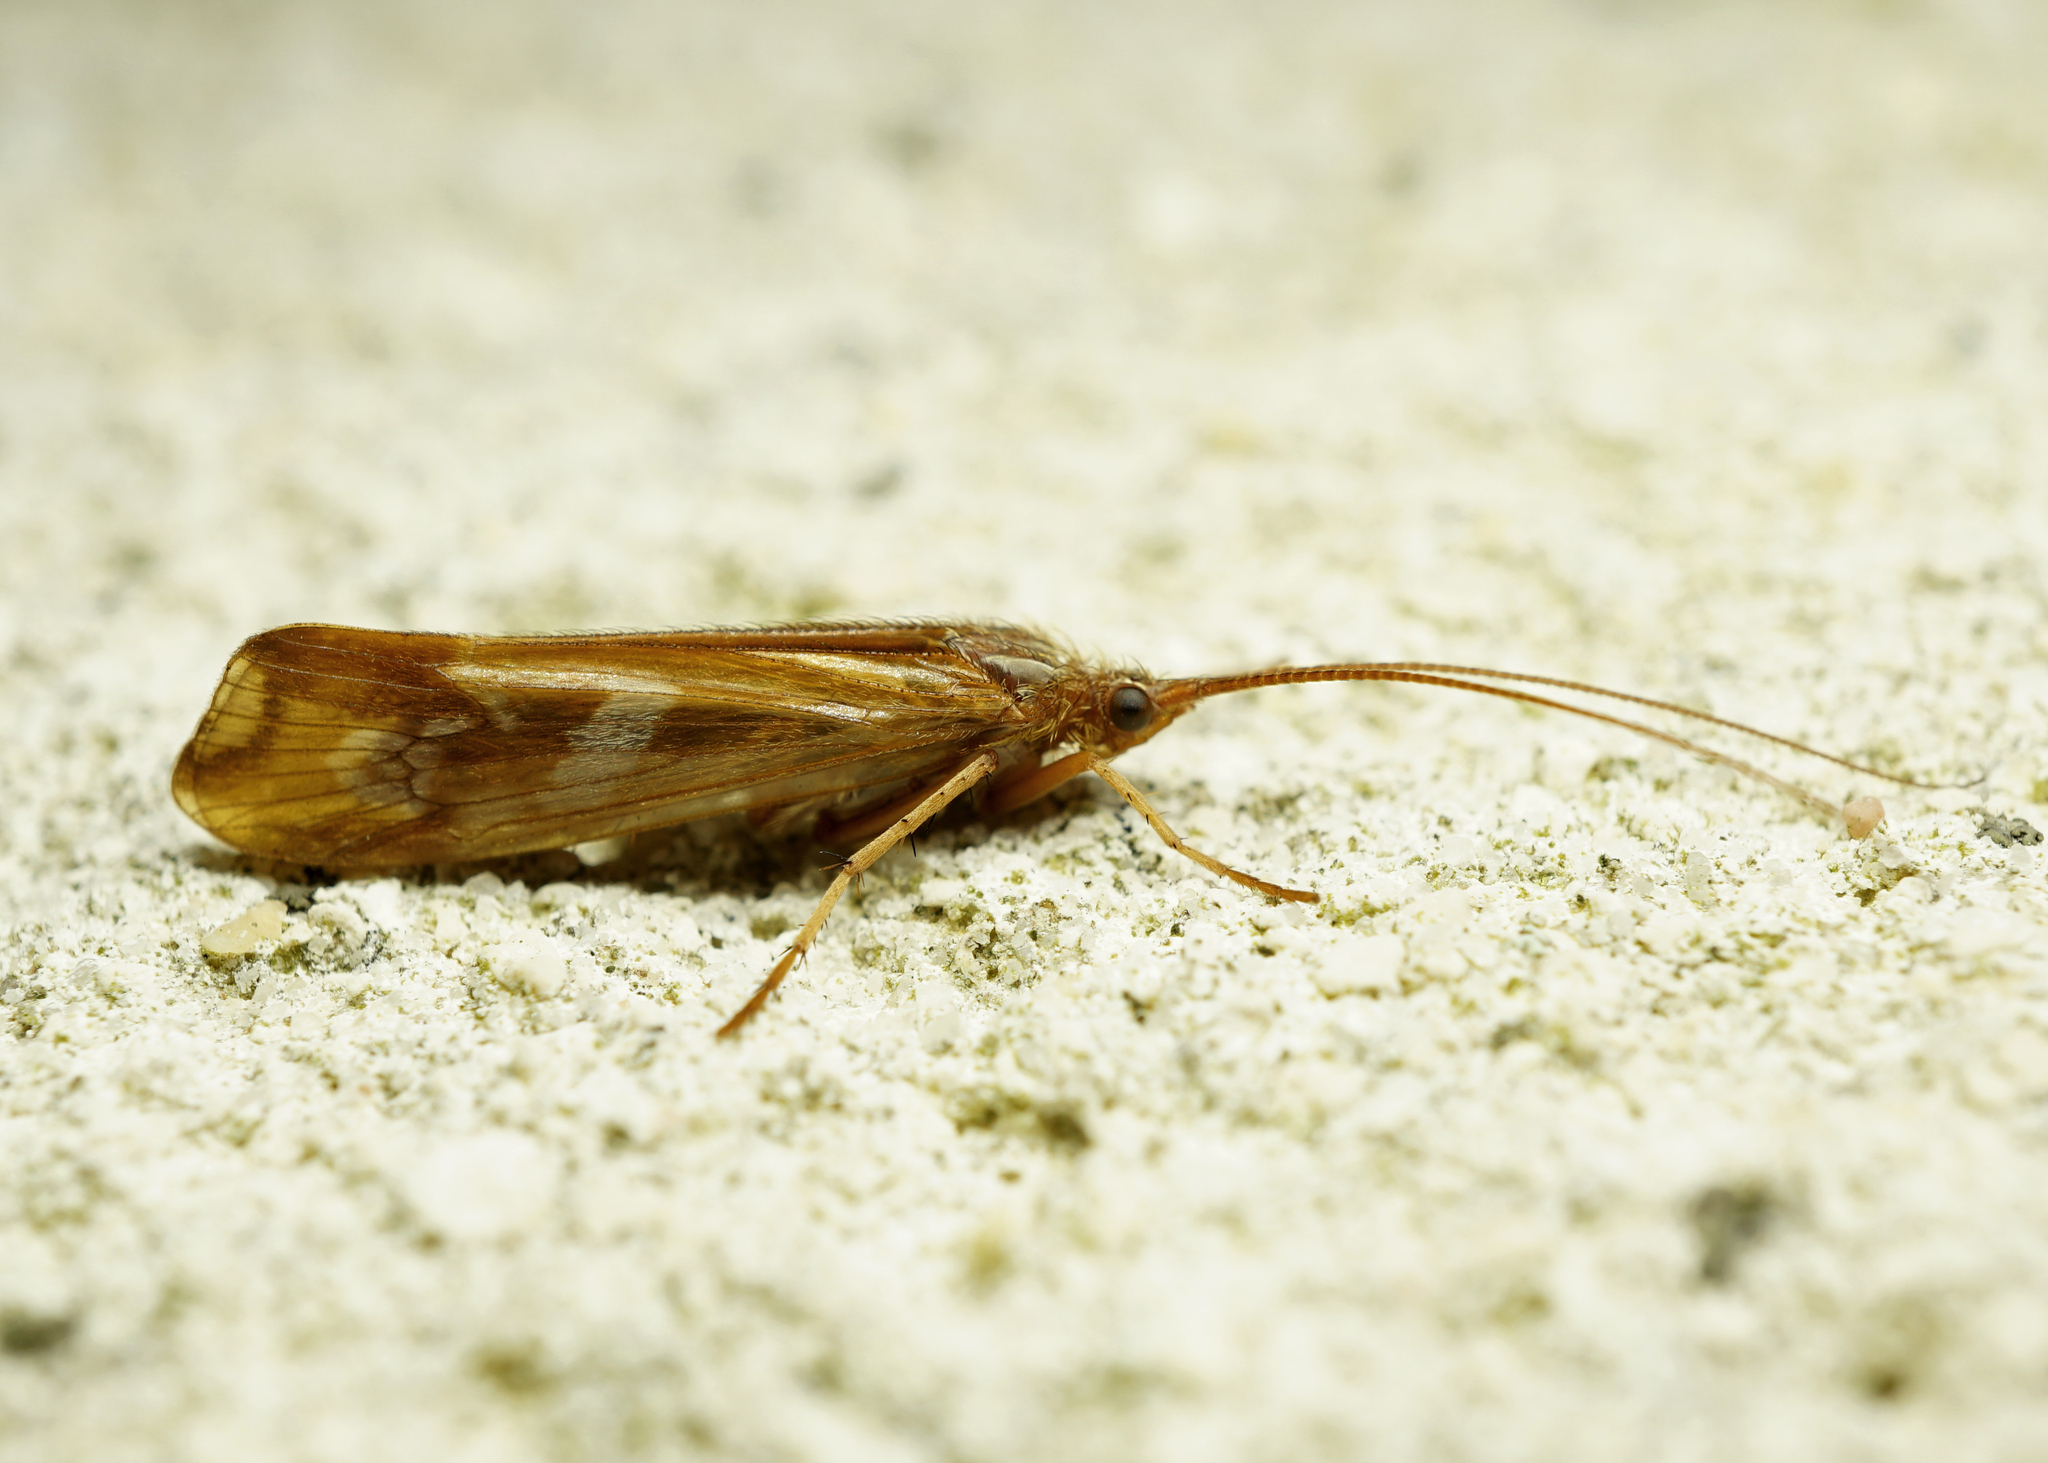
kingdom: Animalia
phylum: Arthropoda
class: Insecta
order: Trichoptera
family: Limnephilidae
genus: Limnephilus
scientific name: Limnephilus lunatus
